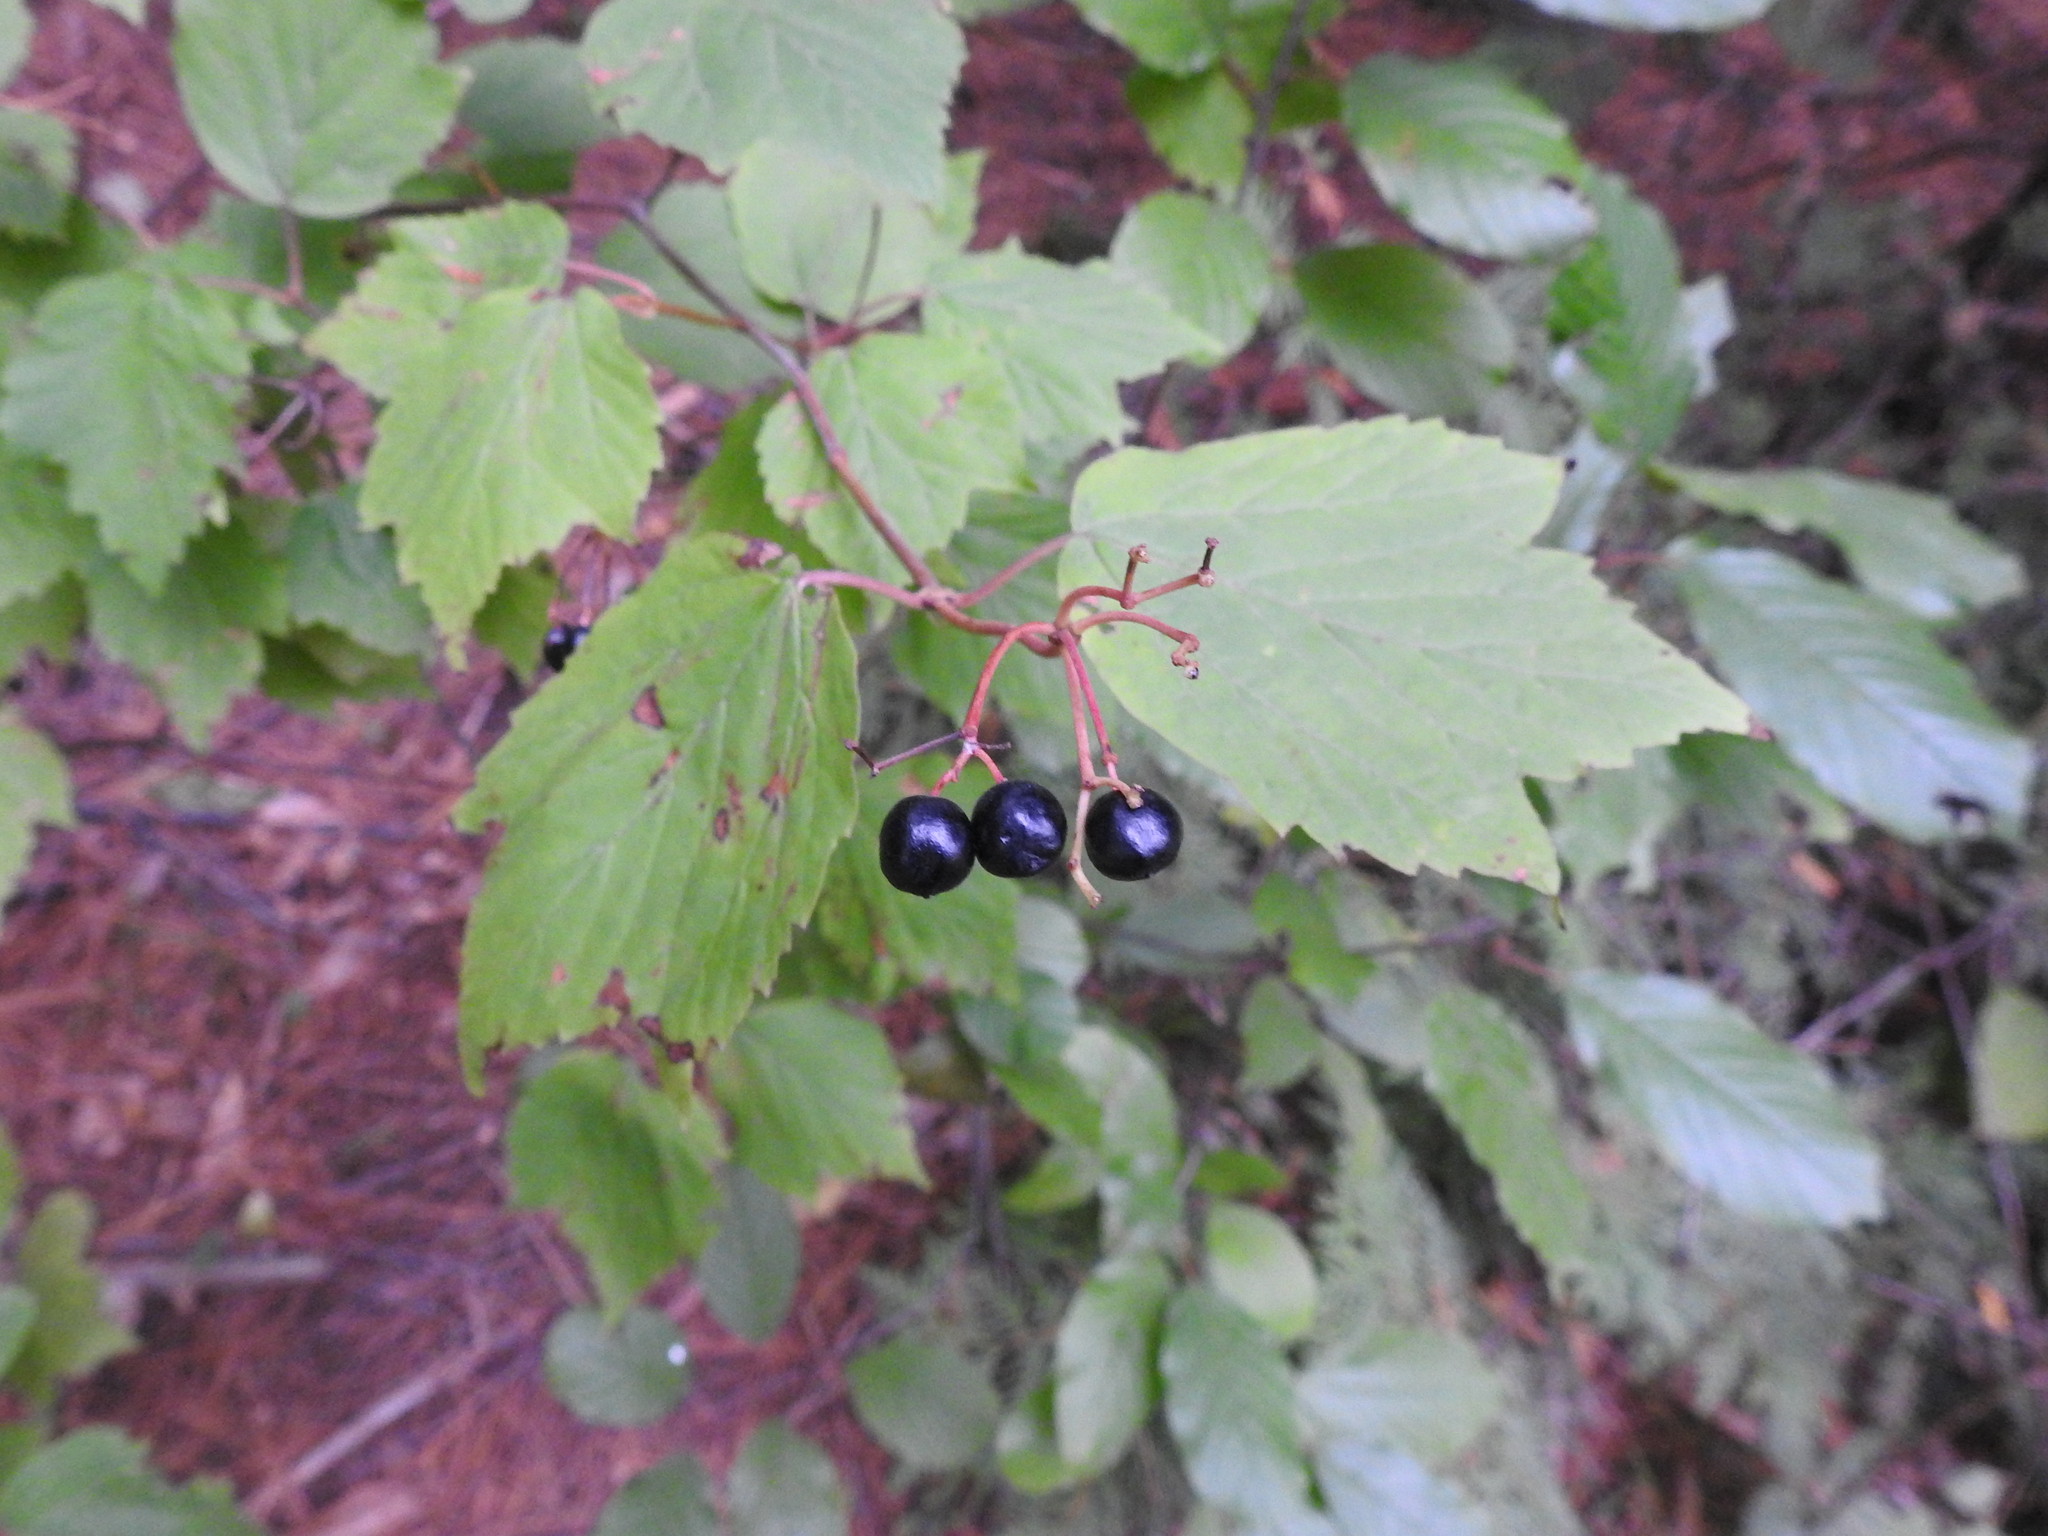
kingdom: Plantae
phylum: Tracheophyta
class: Magnoliopsida
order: Dipsacales
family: Viburnaceae
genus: Viburnum
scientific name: Viburnum acerifolium
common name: Dockmackie
